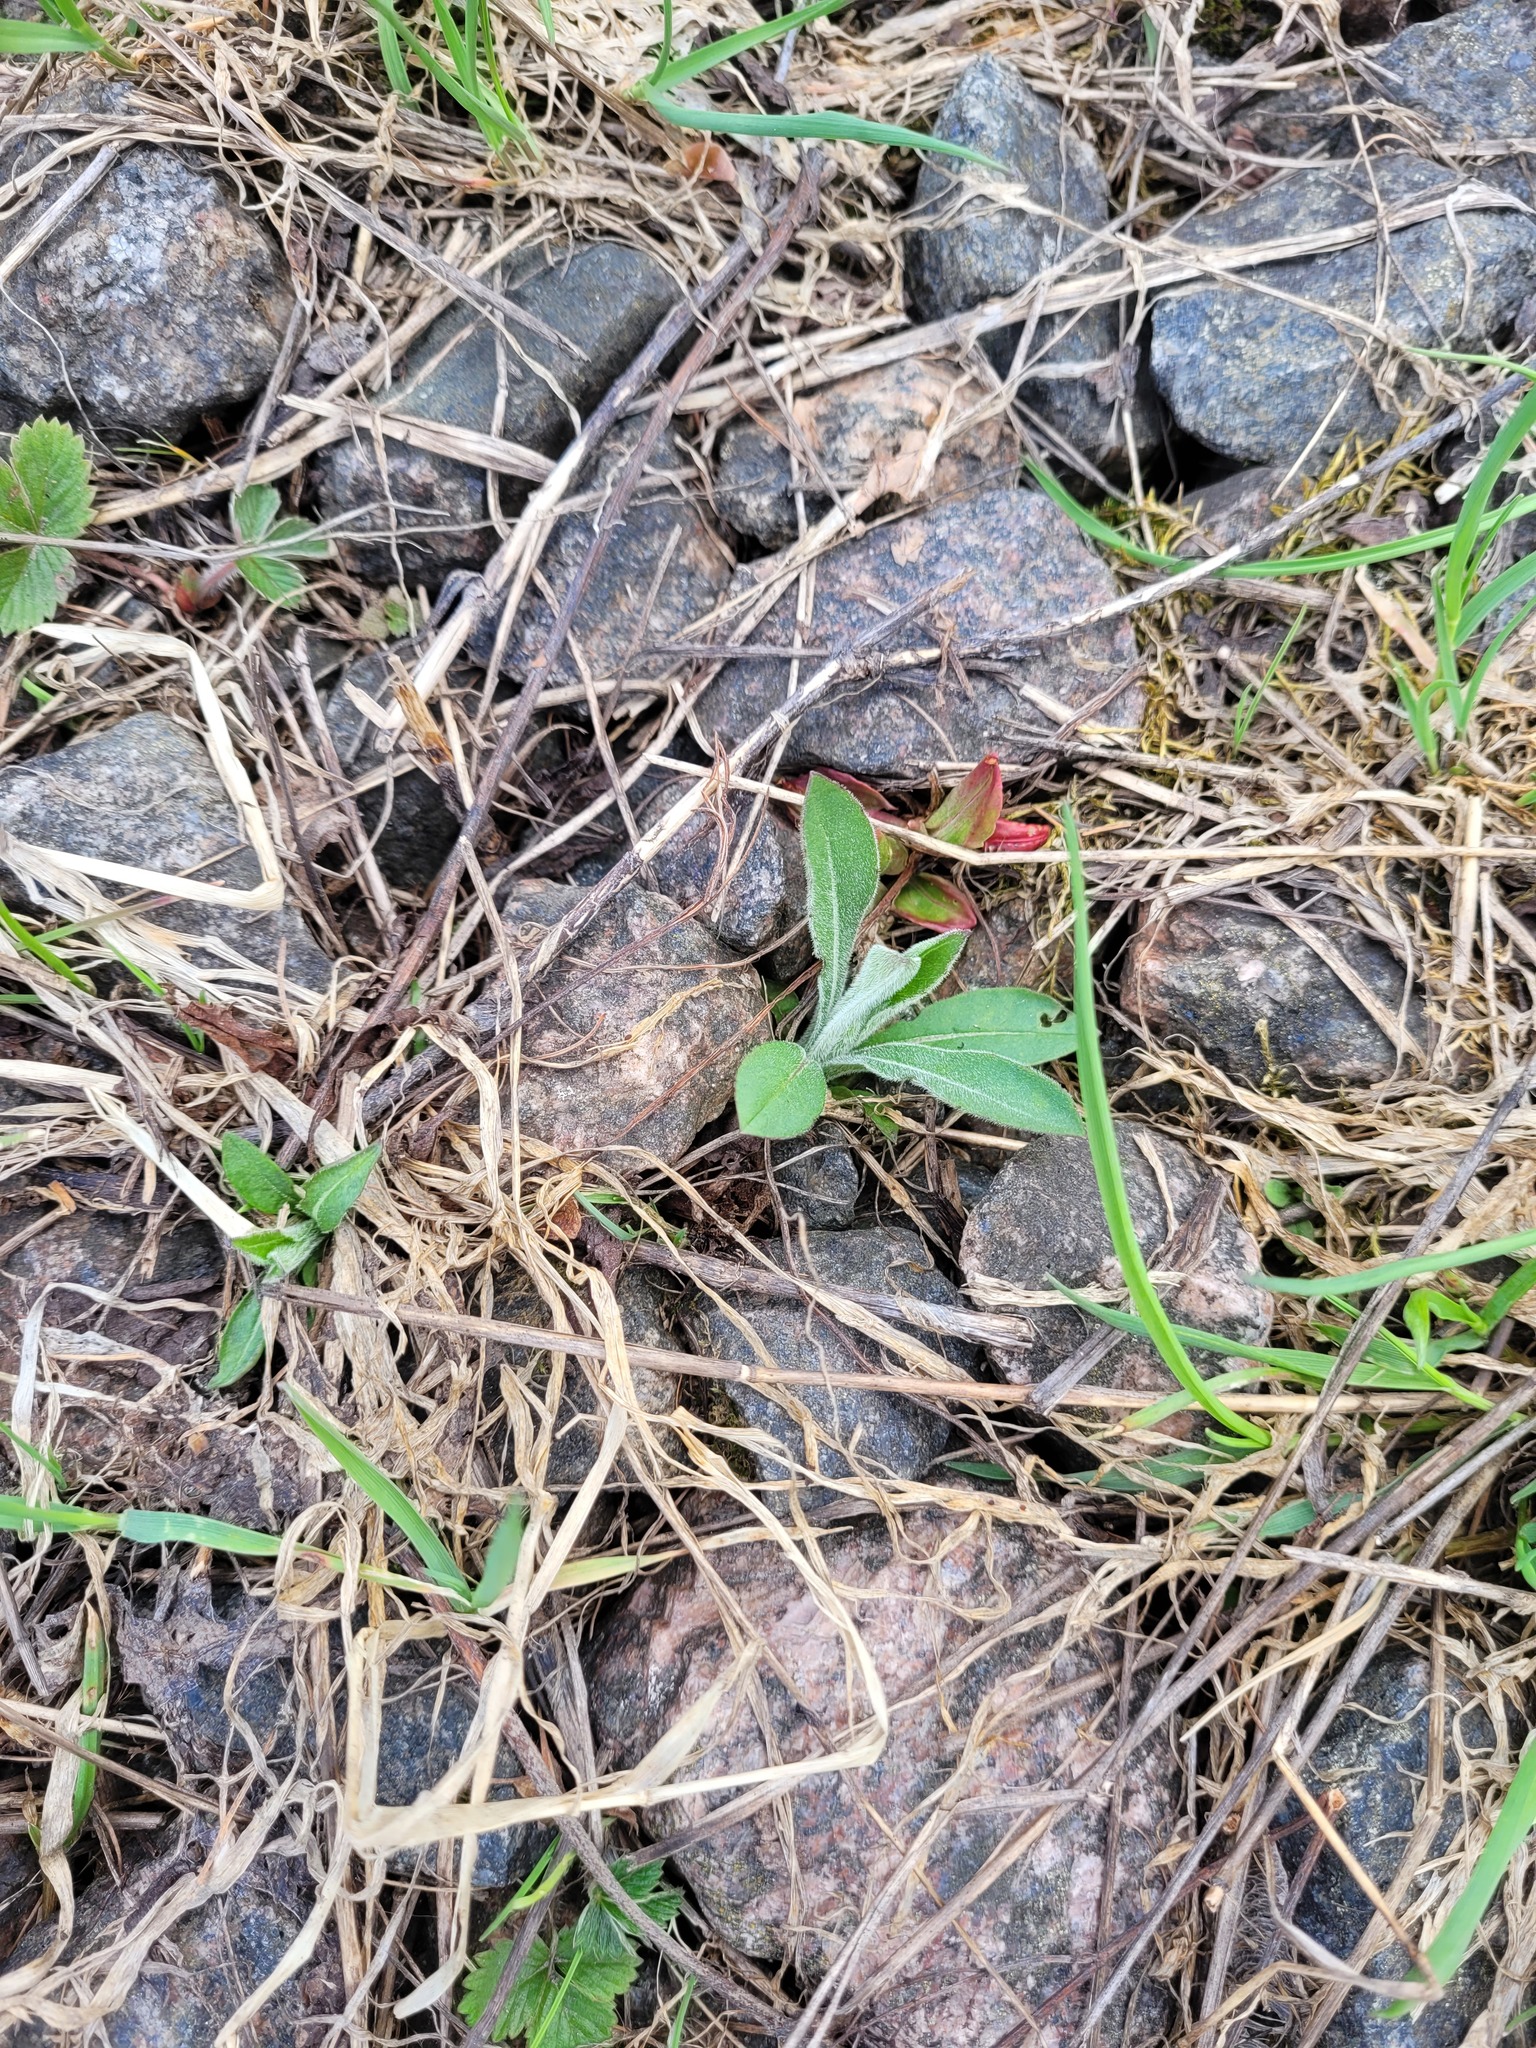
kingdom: Plantae
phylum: Tracheophyta
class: Magnoliopsida
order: Dipsacales
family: Caprifoliaceae
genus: Knautia
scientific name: Knautia arvensis
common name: Field scabiosa
